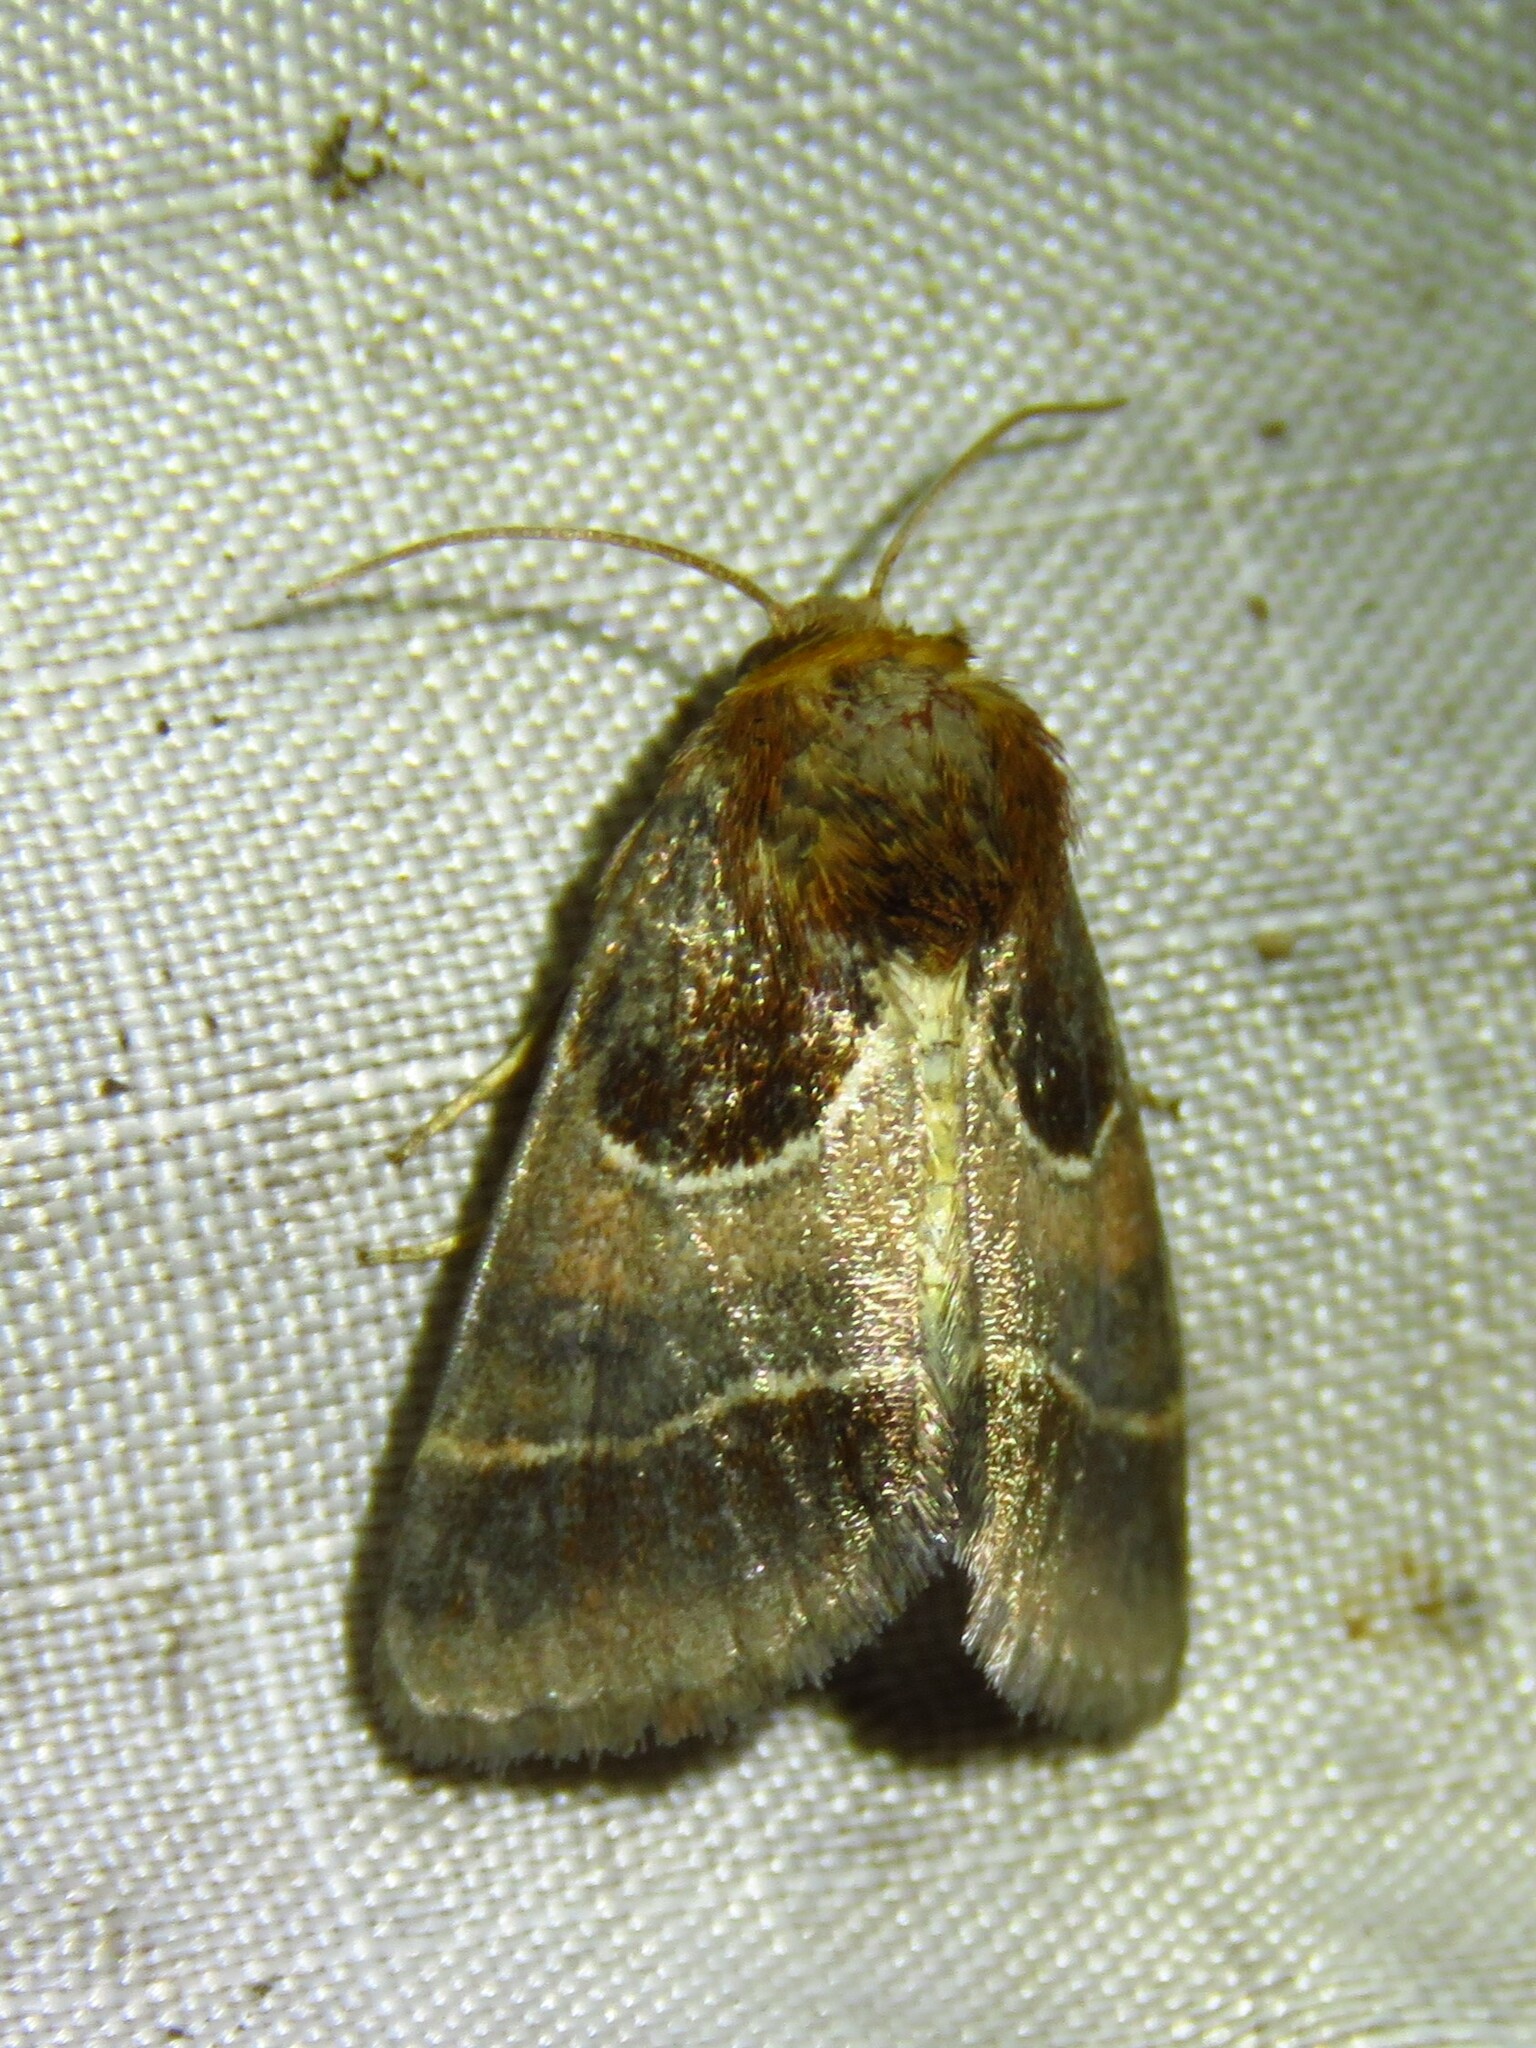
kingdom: Animalia
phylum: Arthropoda
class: Insecta
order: Lepidoptera
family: Noctuidae
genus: Schinia
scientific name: Schinia arcigera
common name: Arcigera flower moth
